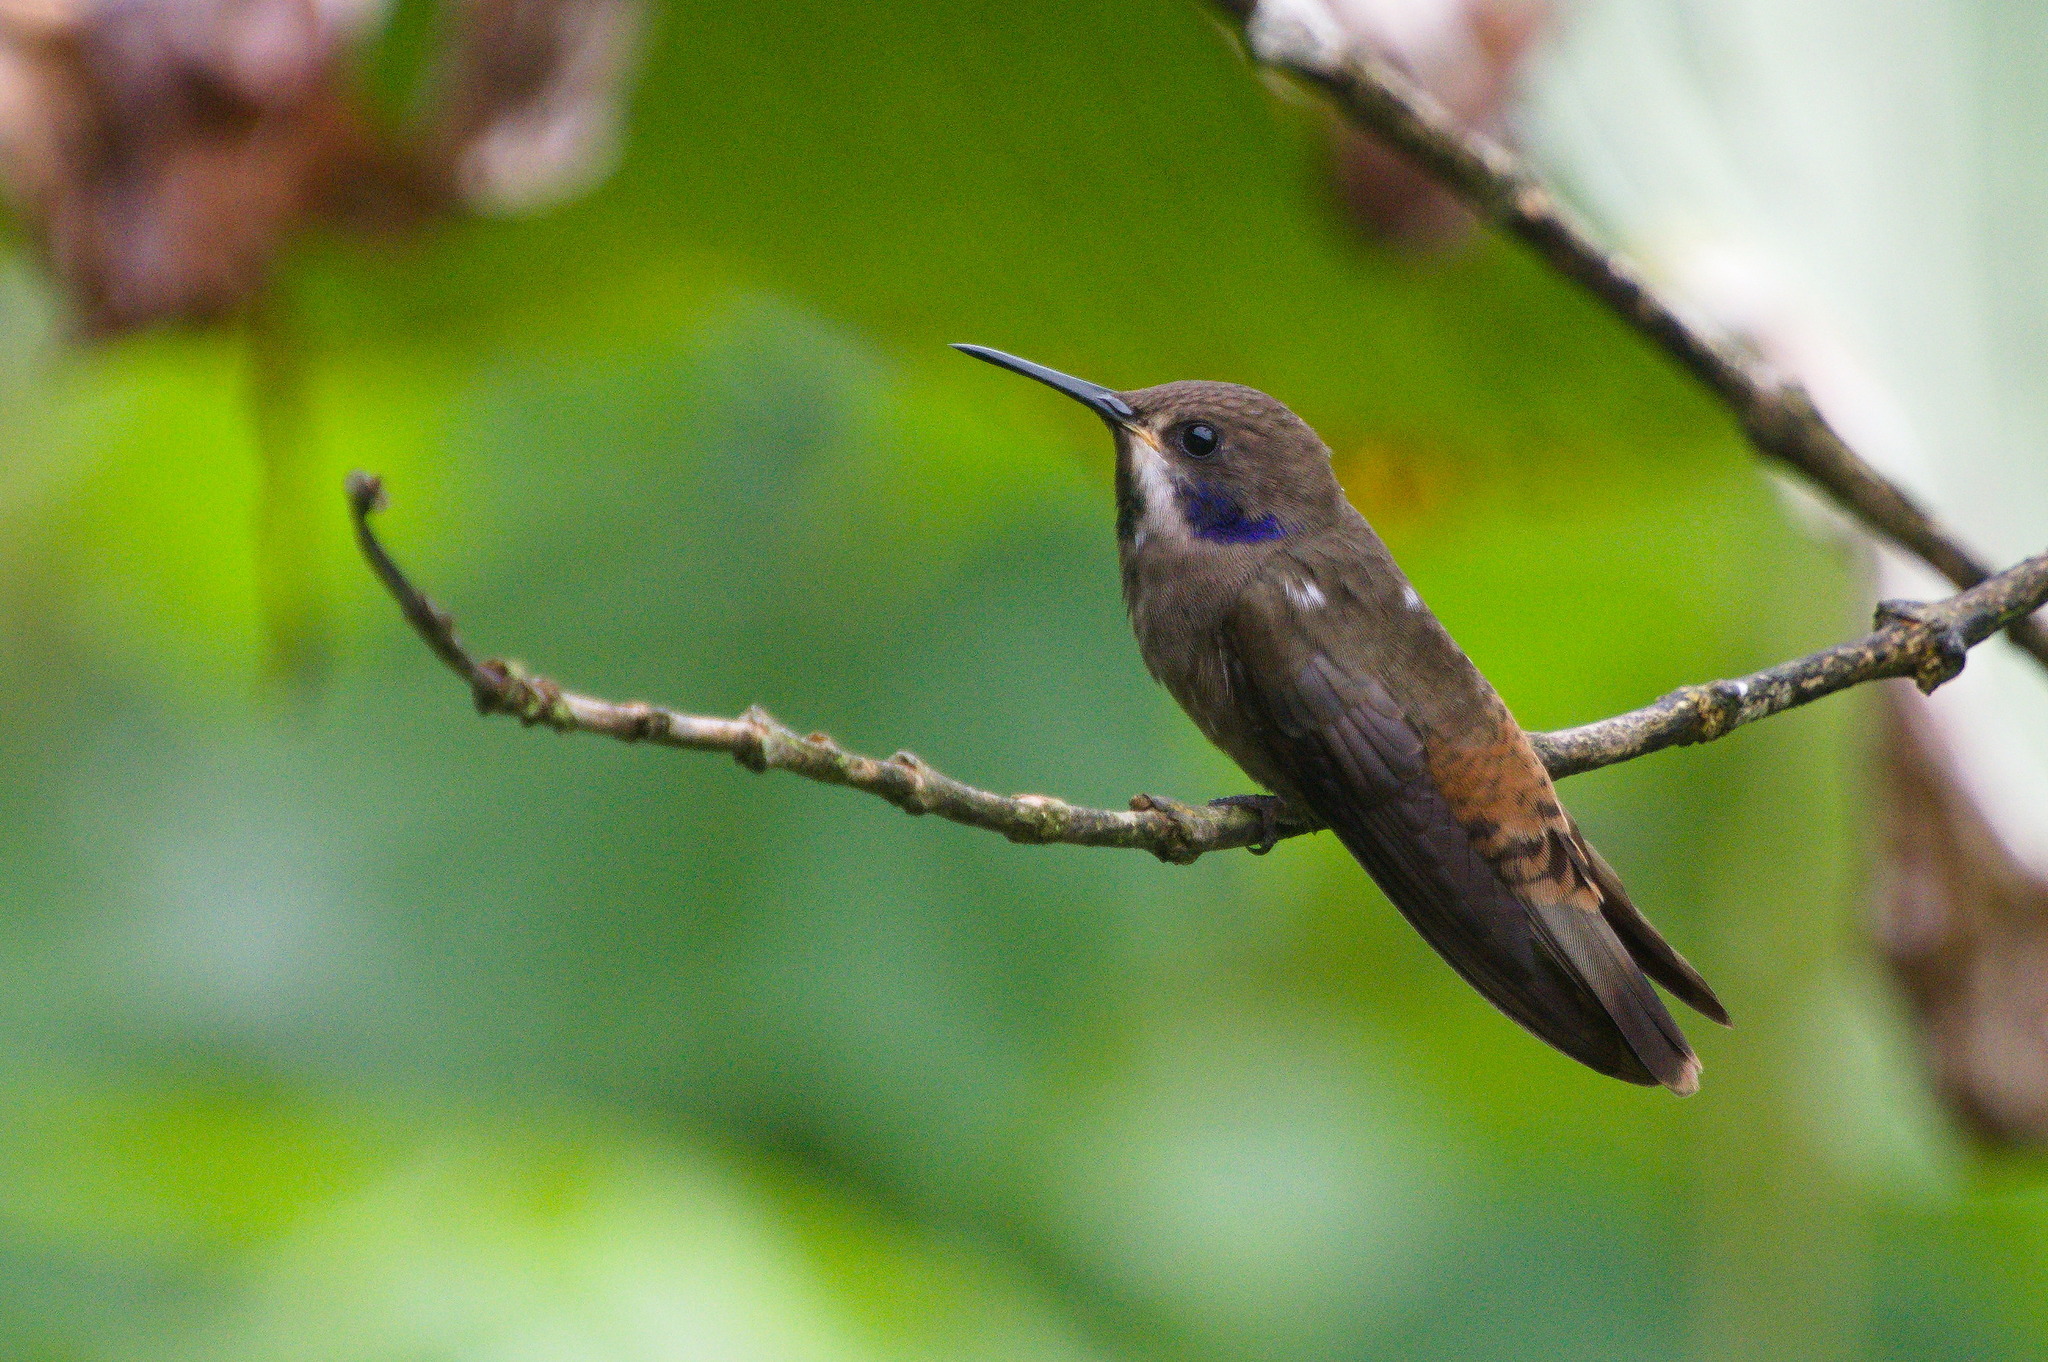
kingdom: Animalia
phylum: Chordata
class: Aves
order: Apodiformes
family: Trochilidae
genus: Colibri
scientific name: Colibri delphinae
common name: Brown violetear
